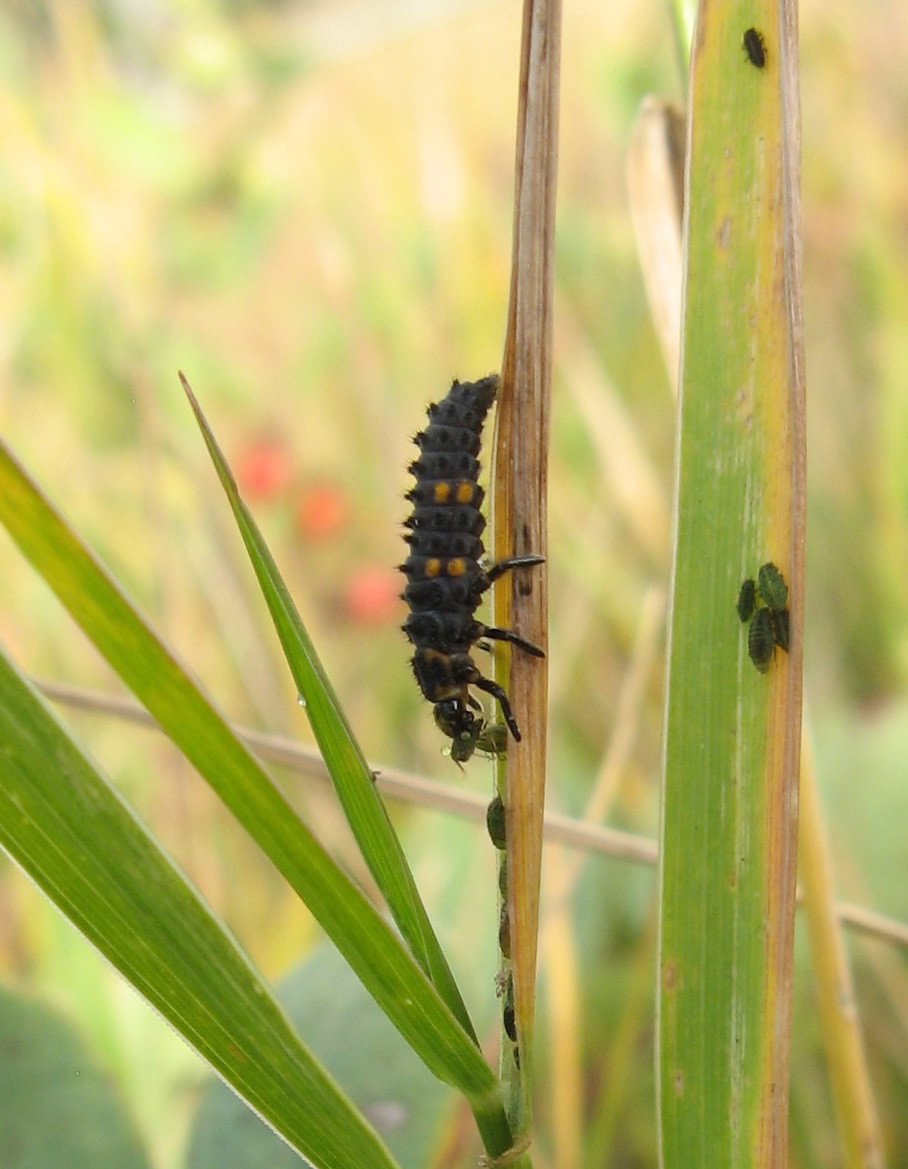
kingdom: Animalia
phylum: Arthropoda
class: Insecta
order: Coleoptera
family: Coccinellidae
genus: Coccinella
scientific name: Coccinella septempunctata
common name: Sevenspotted lady beetle
